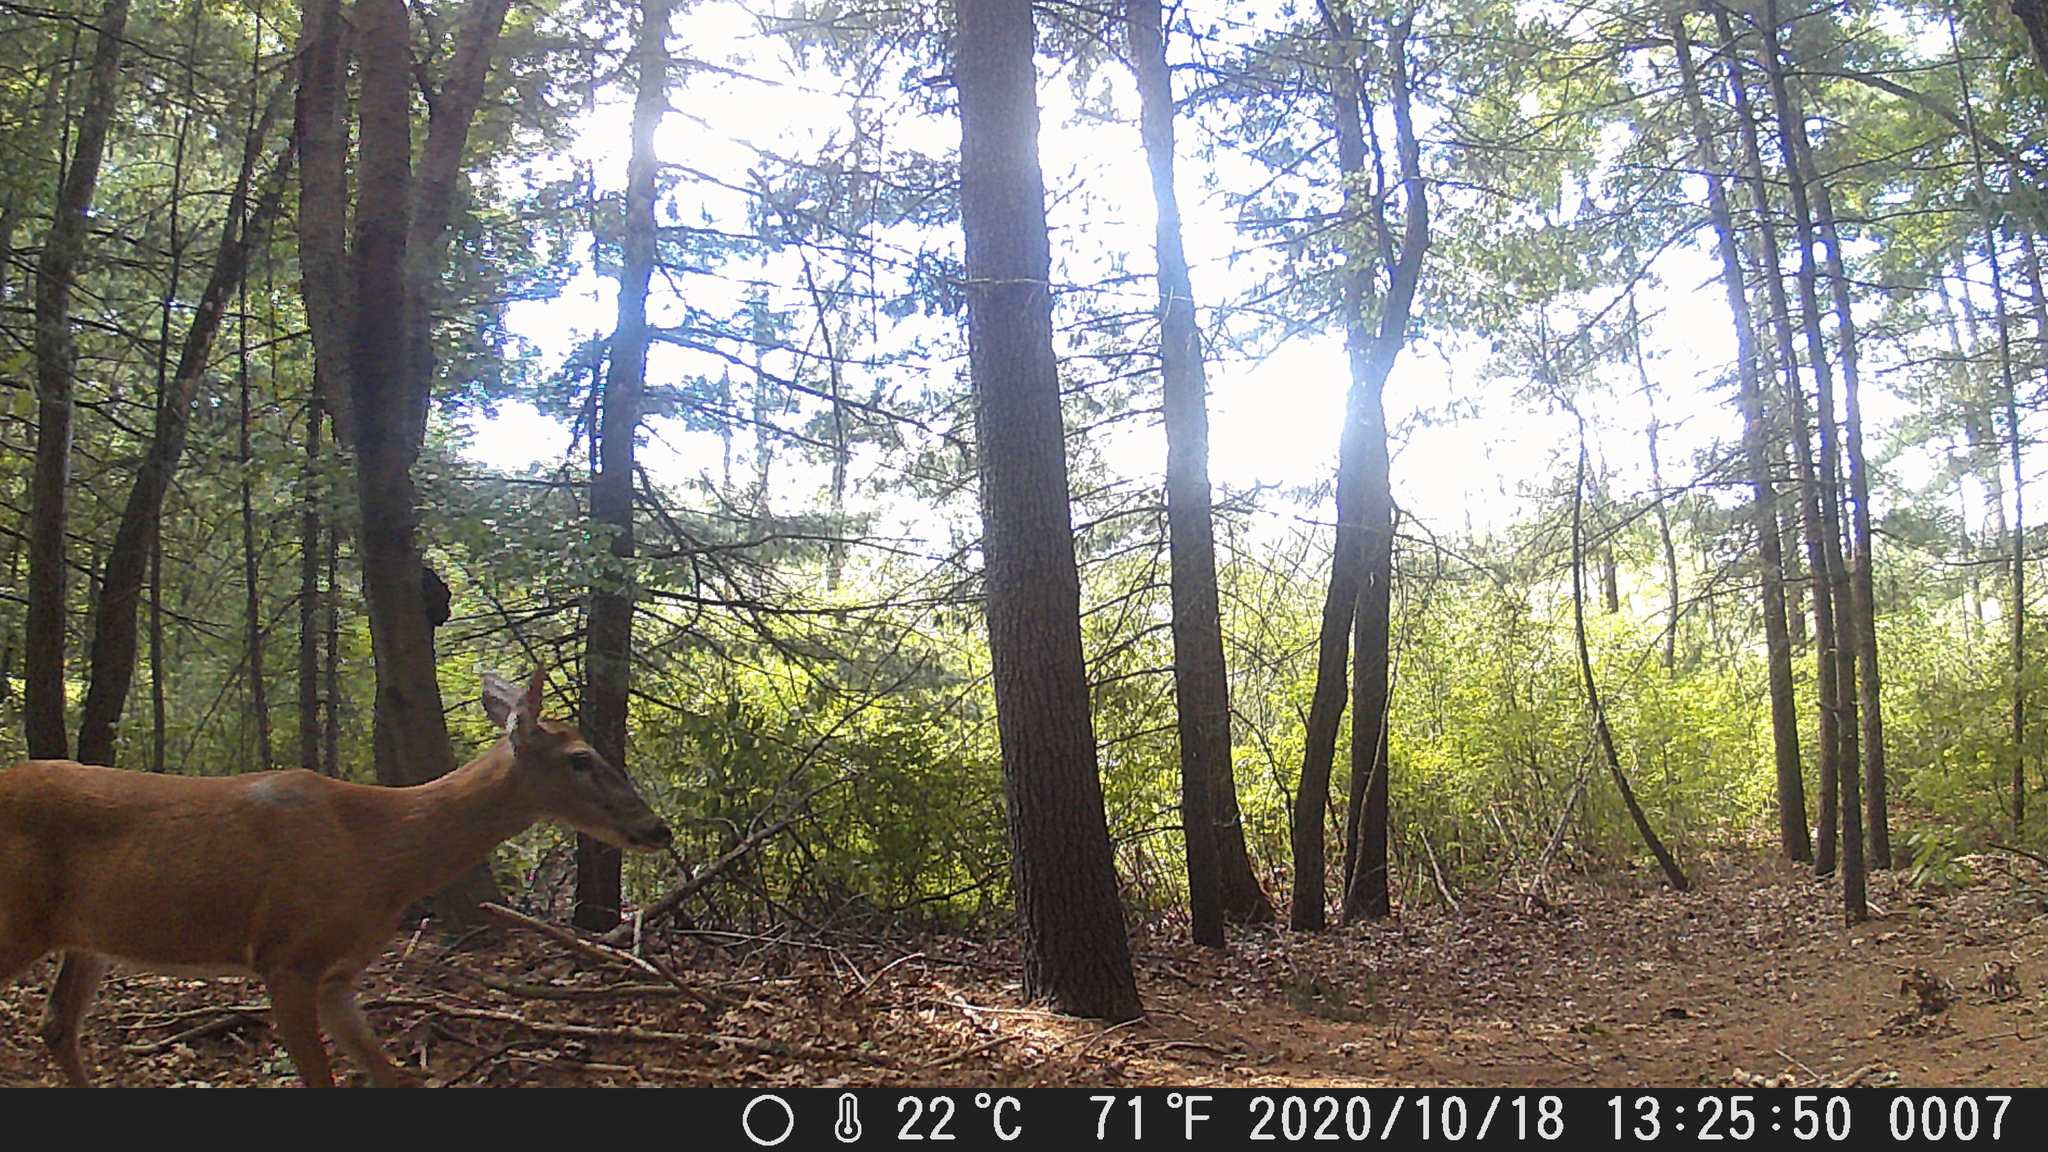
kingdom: Animalia
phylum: Chordata
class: Mammalia
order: Artiodactyla
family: Cervidae
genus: Odocoileus
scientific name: Odocoileus virginianus
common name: White-tailed deer
